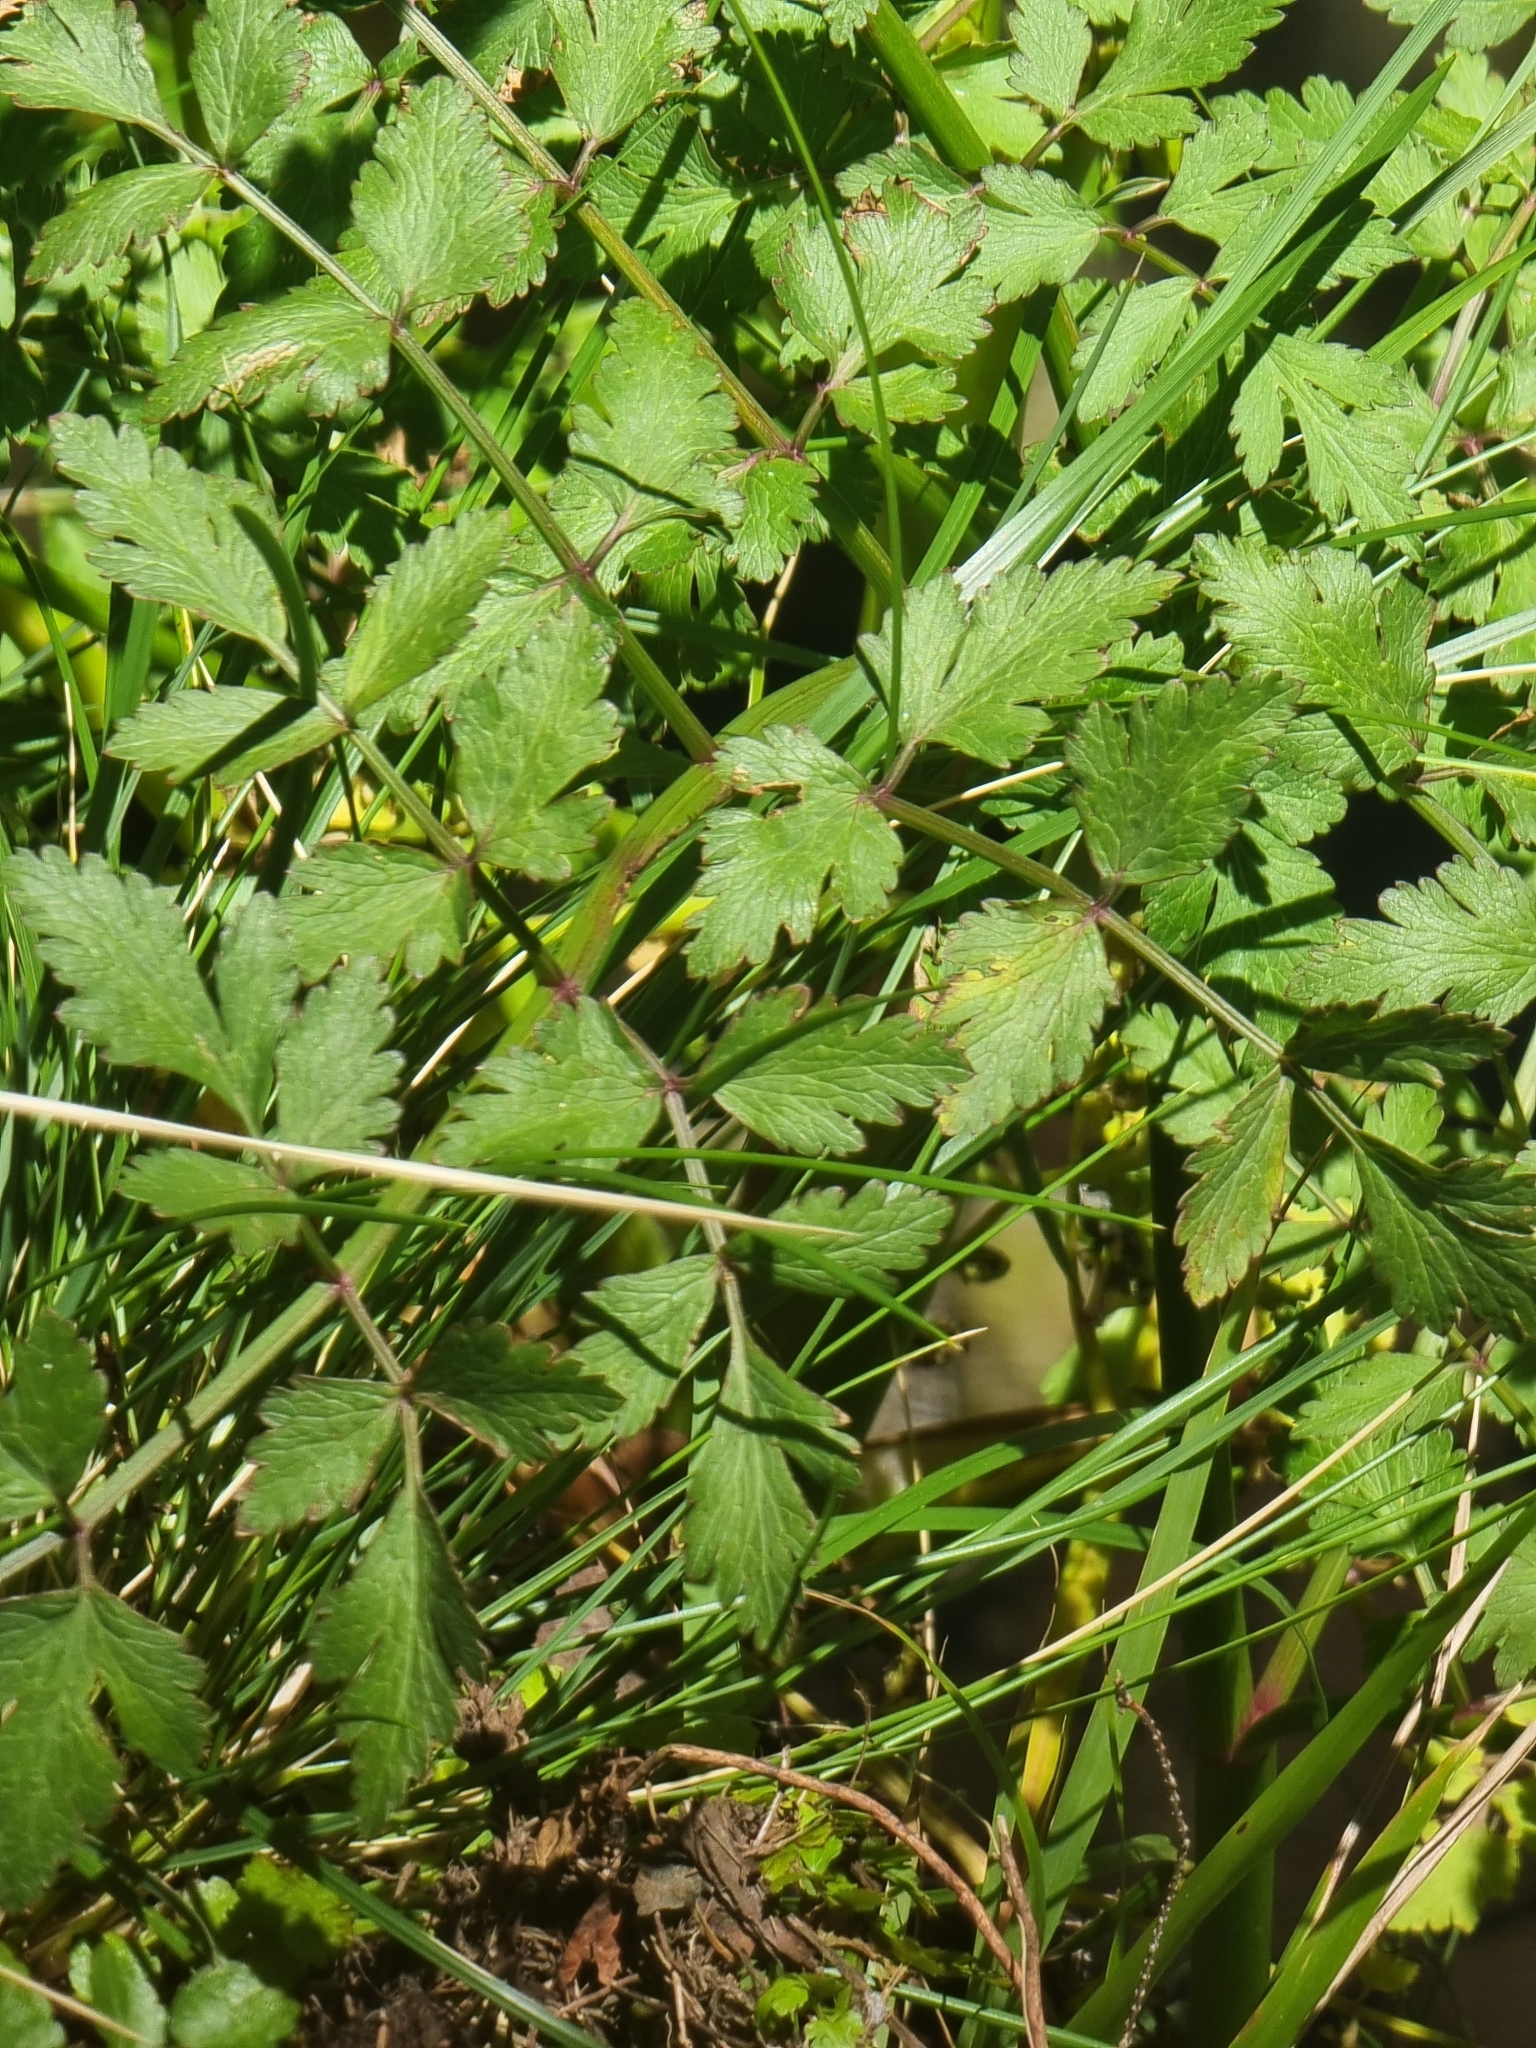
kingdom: Plantae
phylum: Tracheophyta
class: Magnoliopsida
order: Apiales
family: Apiaceae
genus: Oenanthe
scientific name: Oenanthe divaricata
